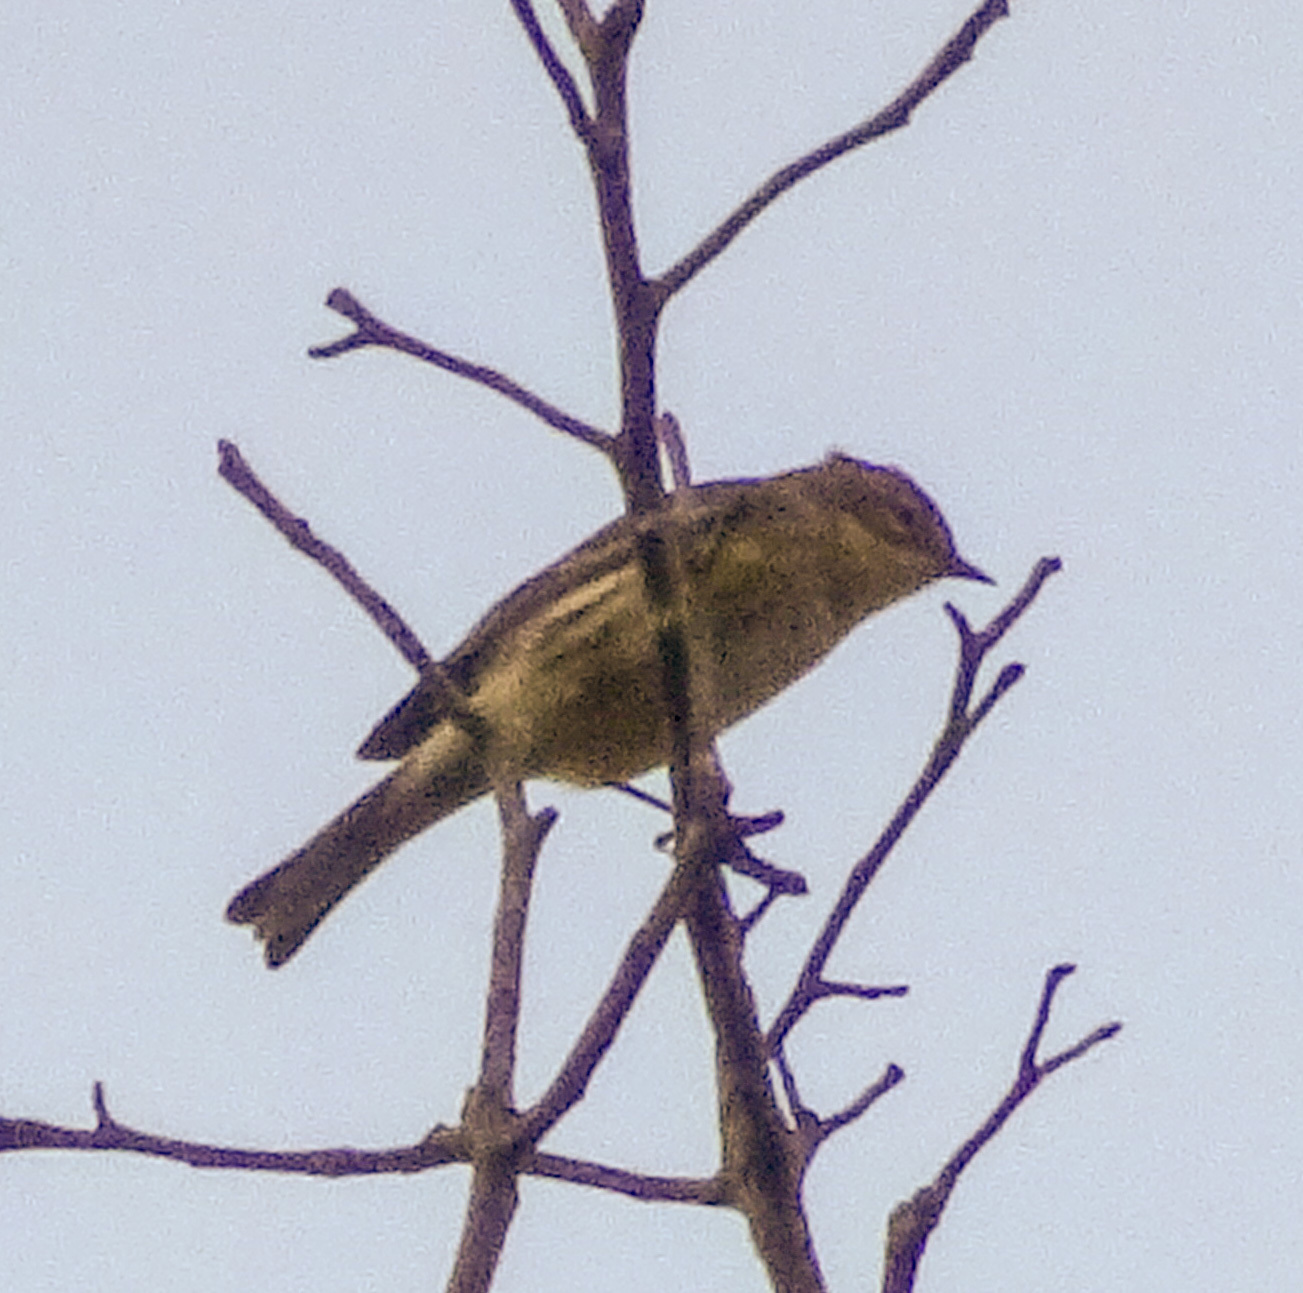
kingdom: Animalia
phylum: Chordata
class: Aves
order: Passeriformes
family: Parulidae
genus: Setophaga
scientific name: Setophaga coronata
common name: Myrtle warbler
